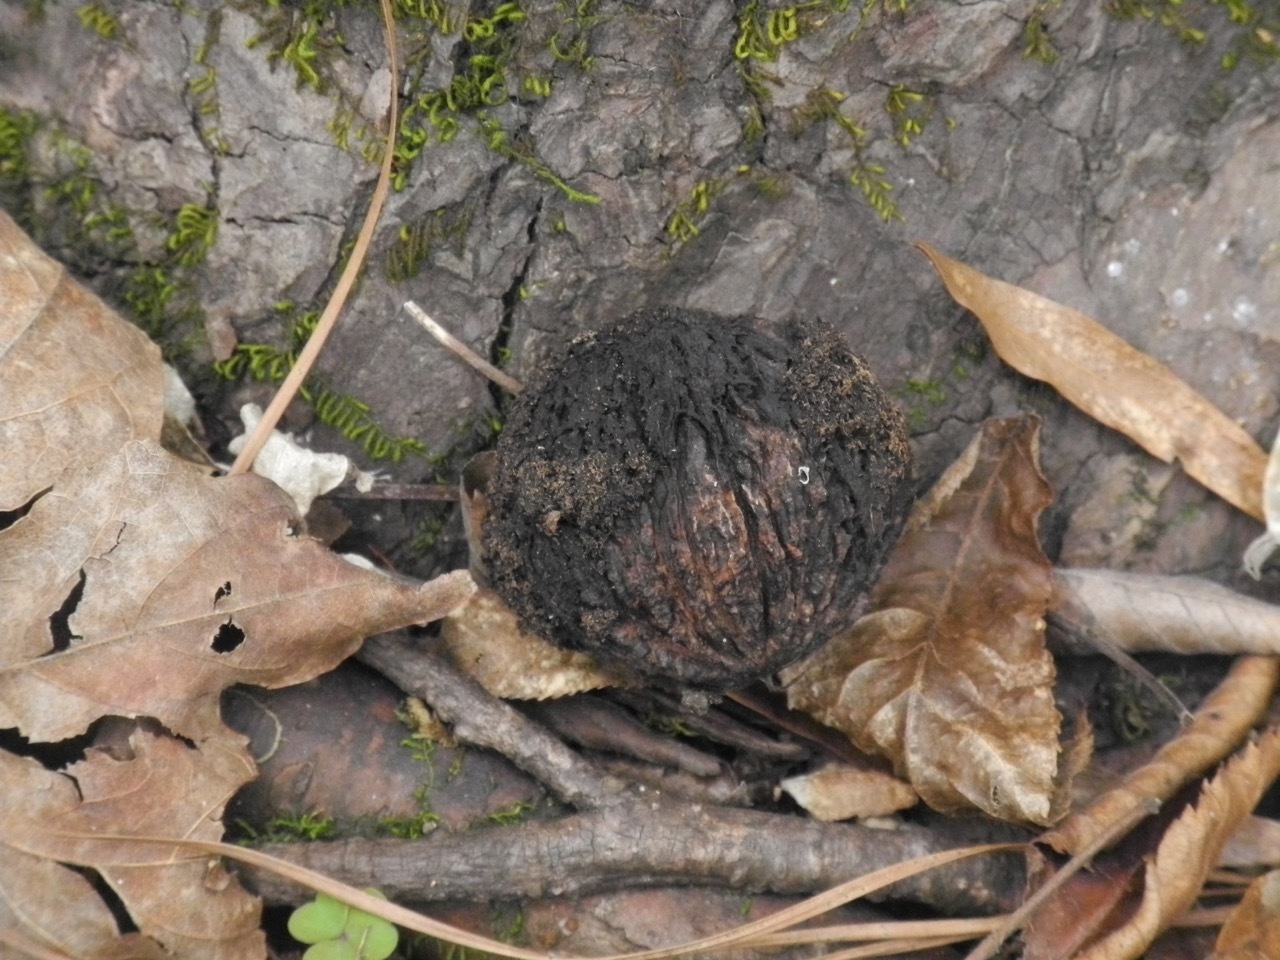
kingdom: Plantae
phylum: Tracheophyta
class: Magnoliopsida
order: Fagales
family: Juglandaceae
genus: Juglans
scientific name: Juglans nigra
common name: Black walnut
